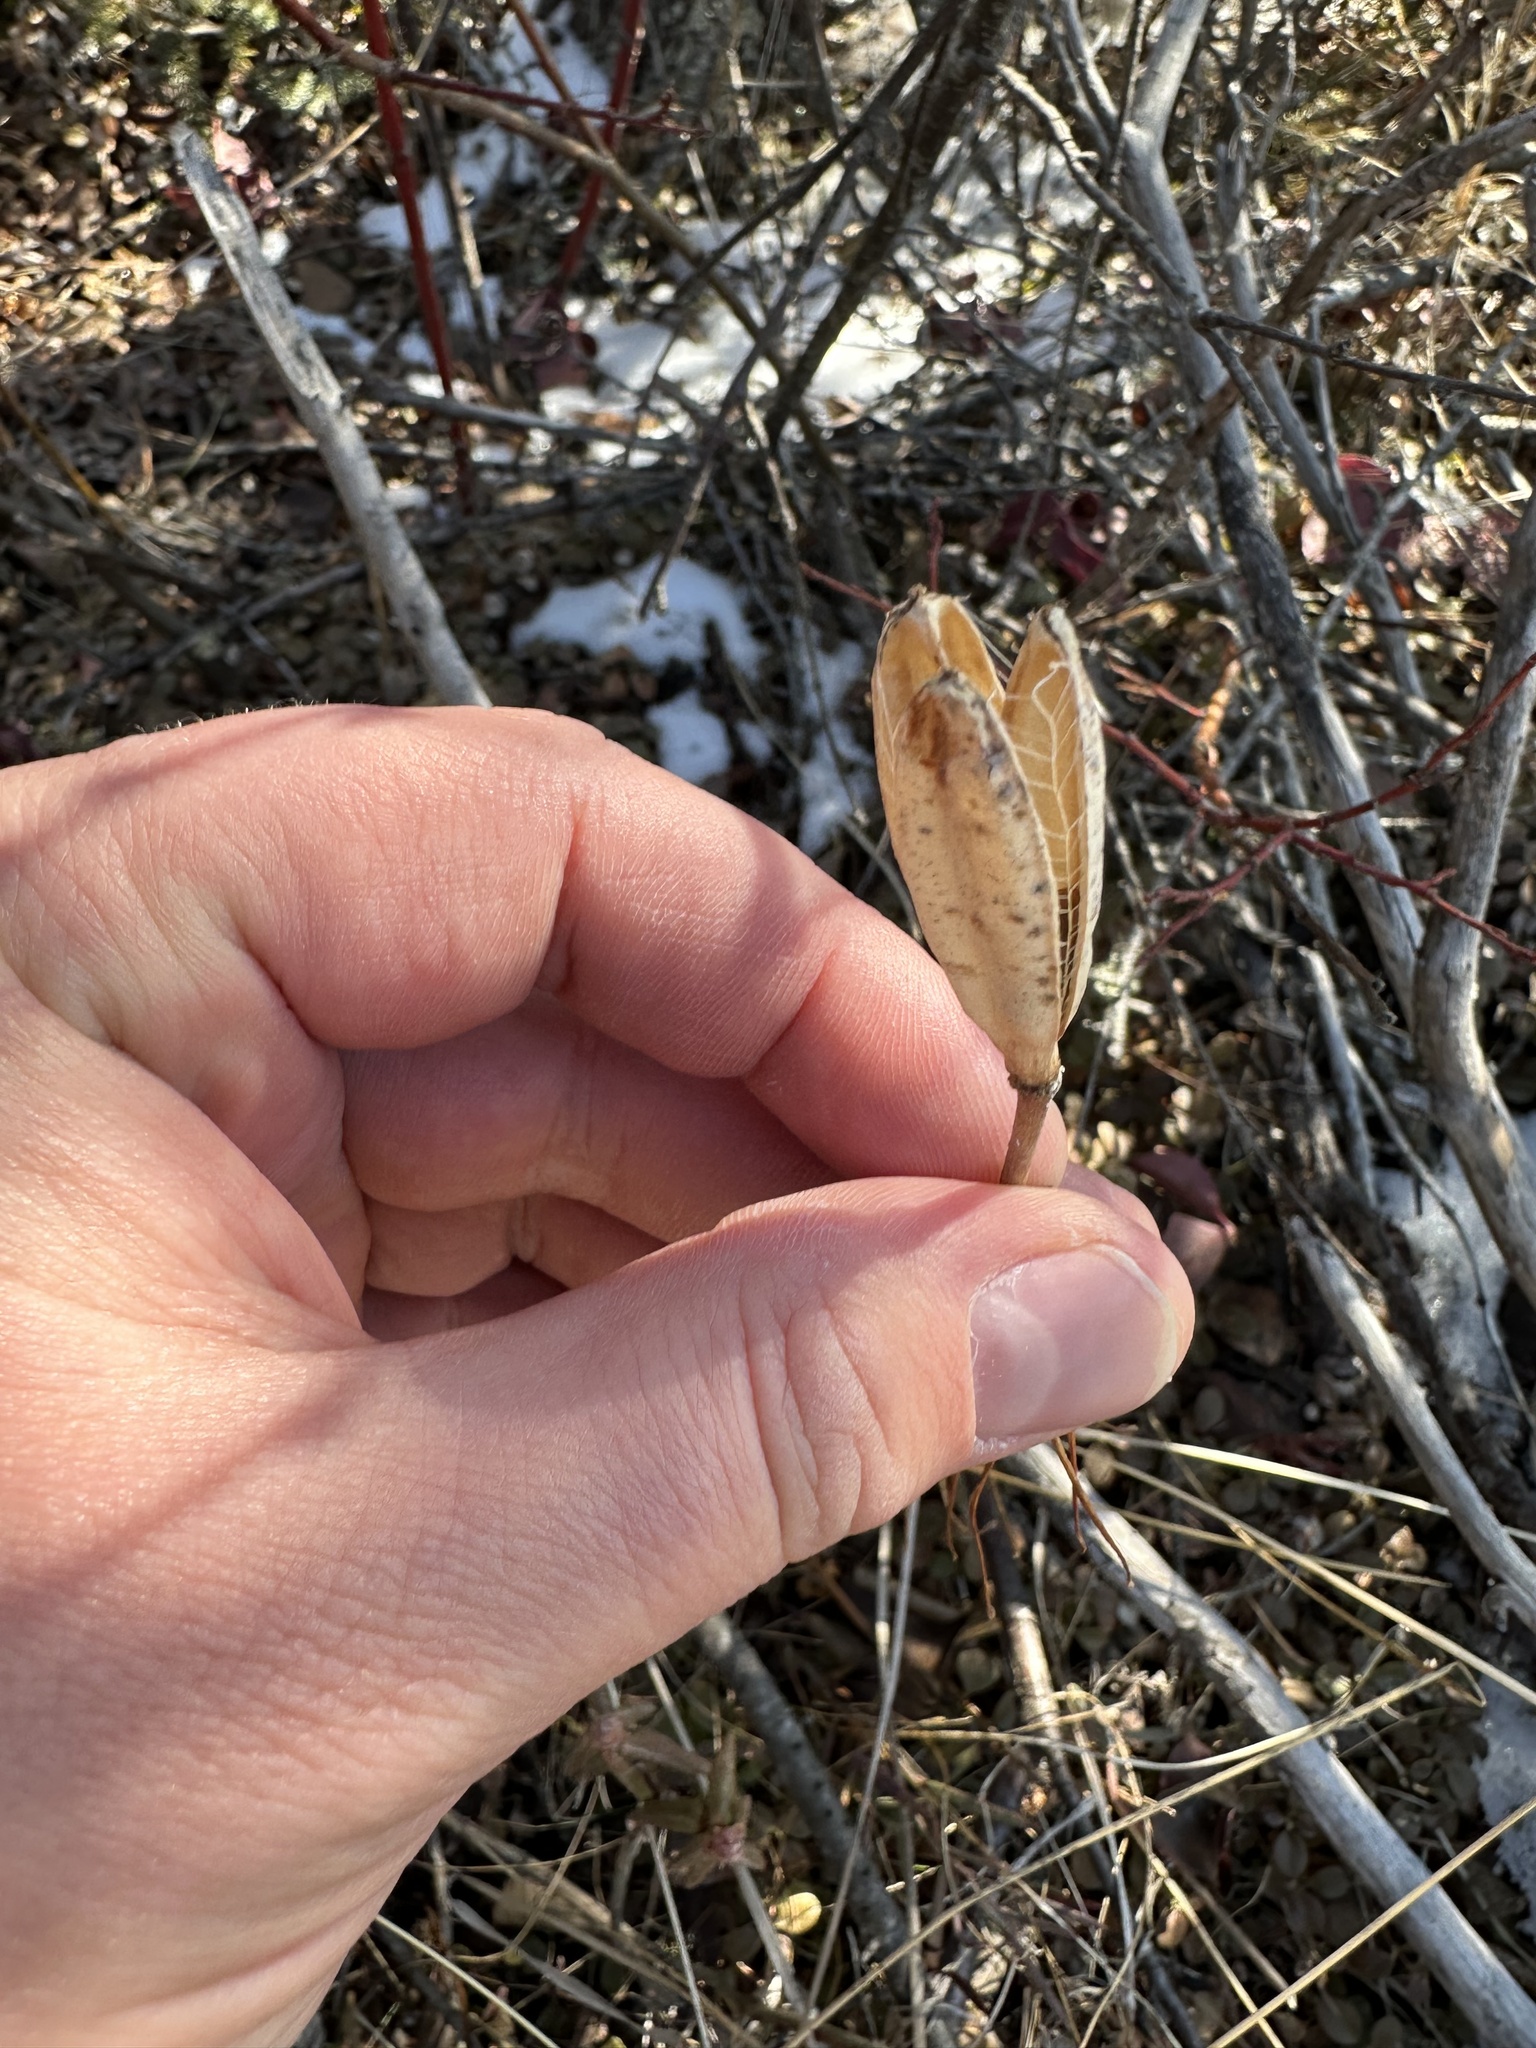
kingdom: Plantae
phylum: Tracheophyta
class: Liliopsida
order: Liliales
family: Liliaceae
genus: Lilium
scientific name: Lilium philadelphicum
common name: Red lily
